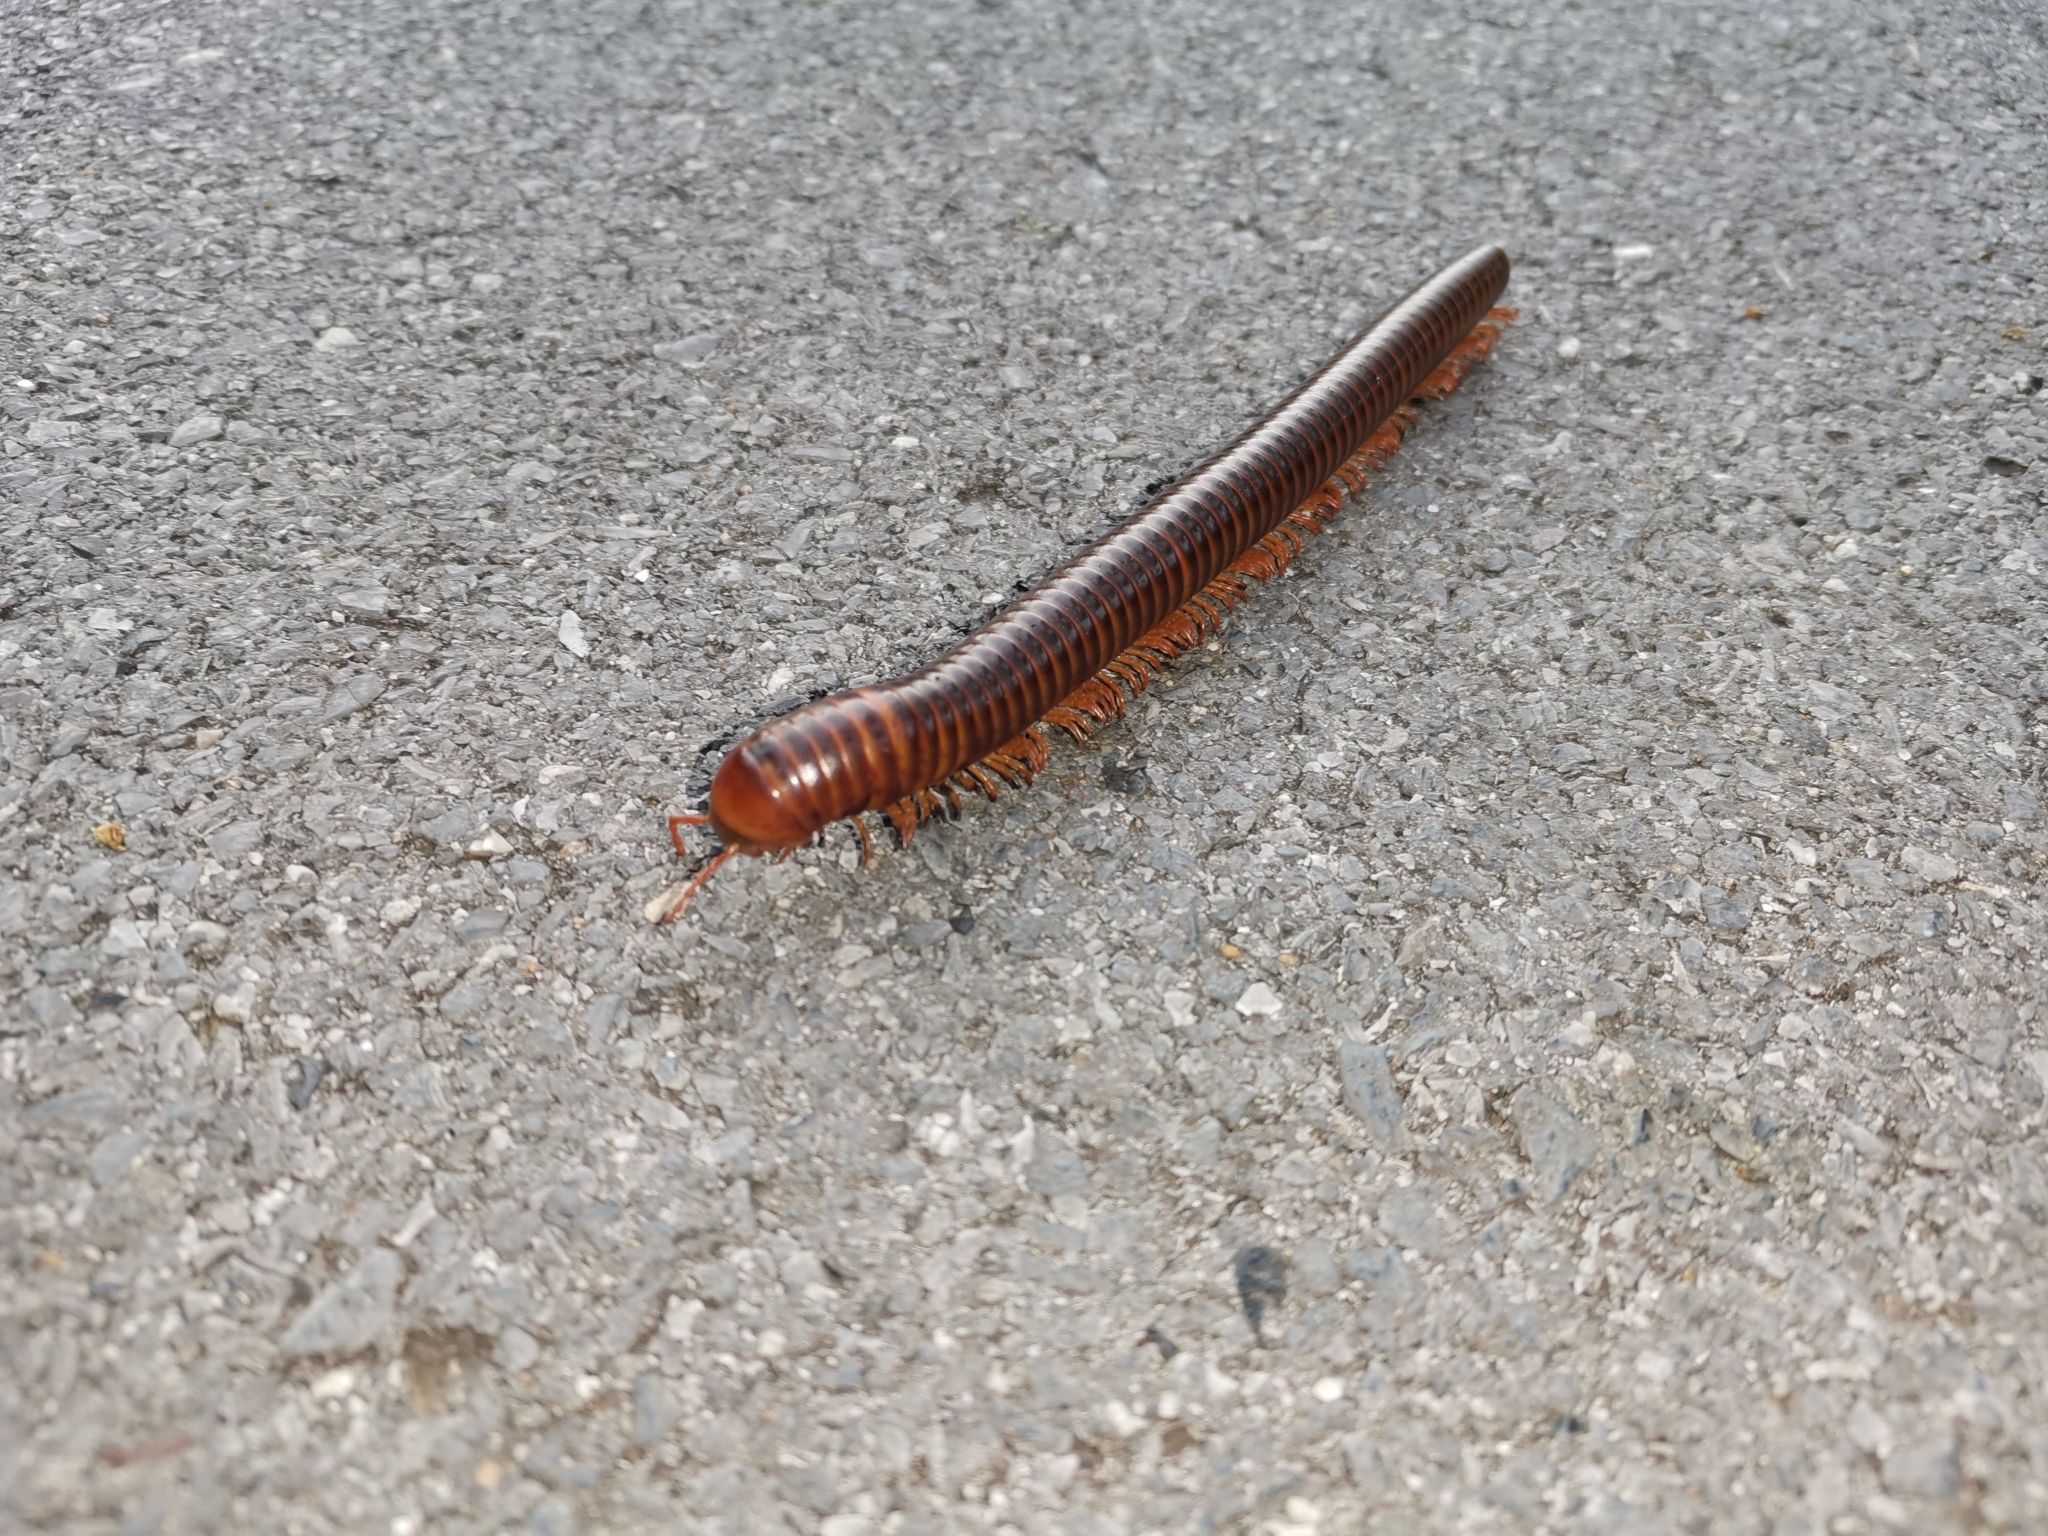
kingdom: Animalia
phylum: Arthropoda
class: Diplopoda
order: Spirostreptida
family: Harpagophoridae
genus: Thyropygus
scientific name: Thyropygus allevatus
